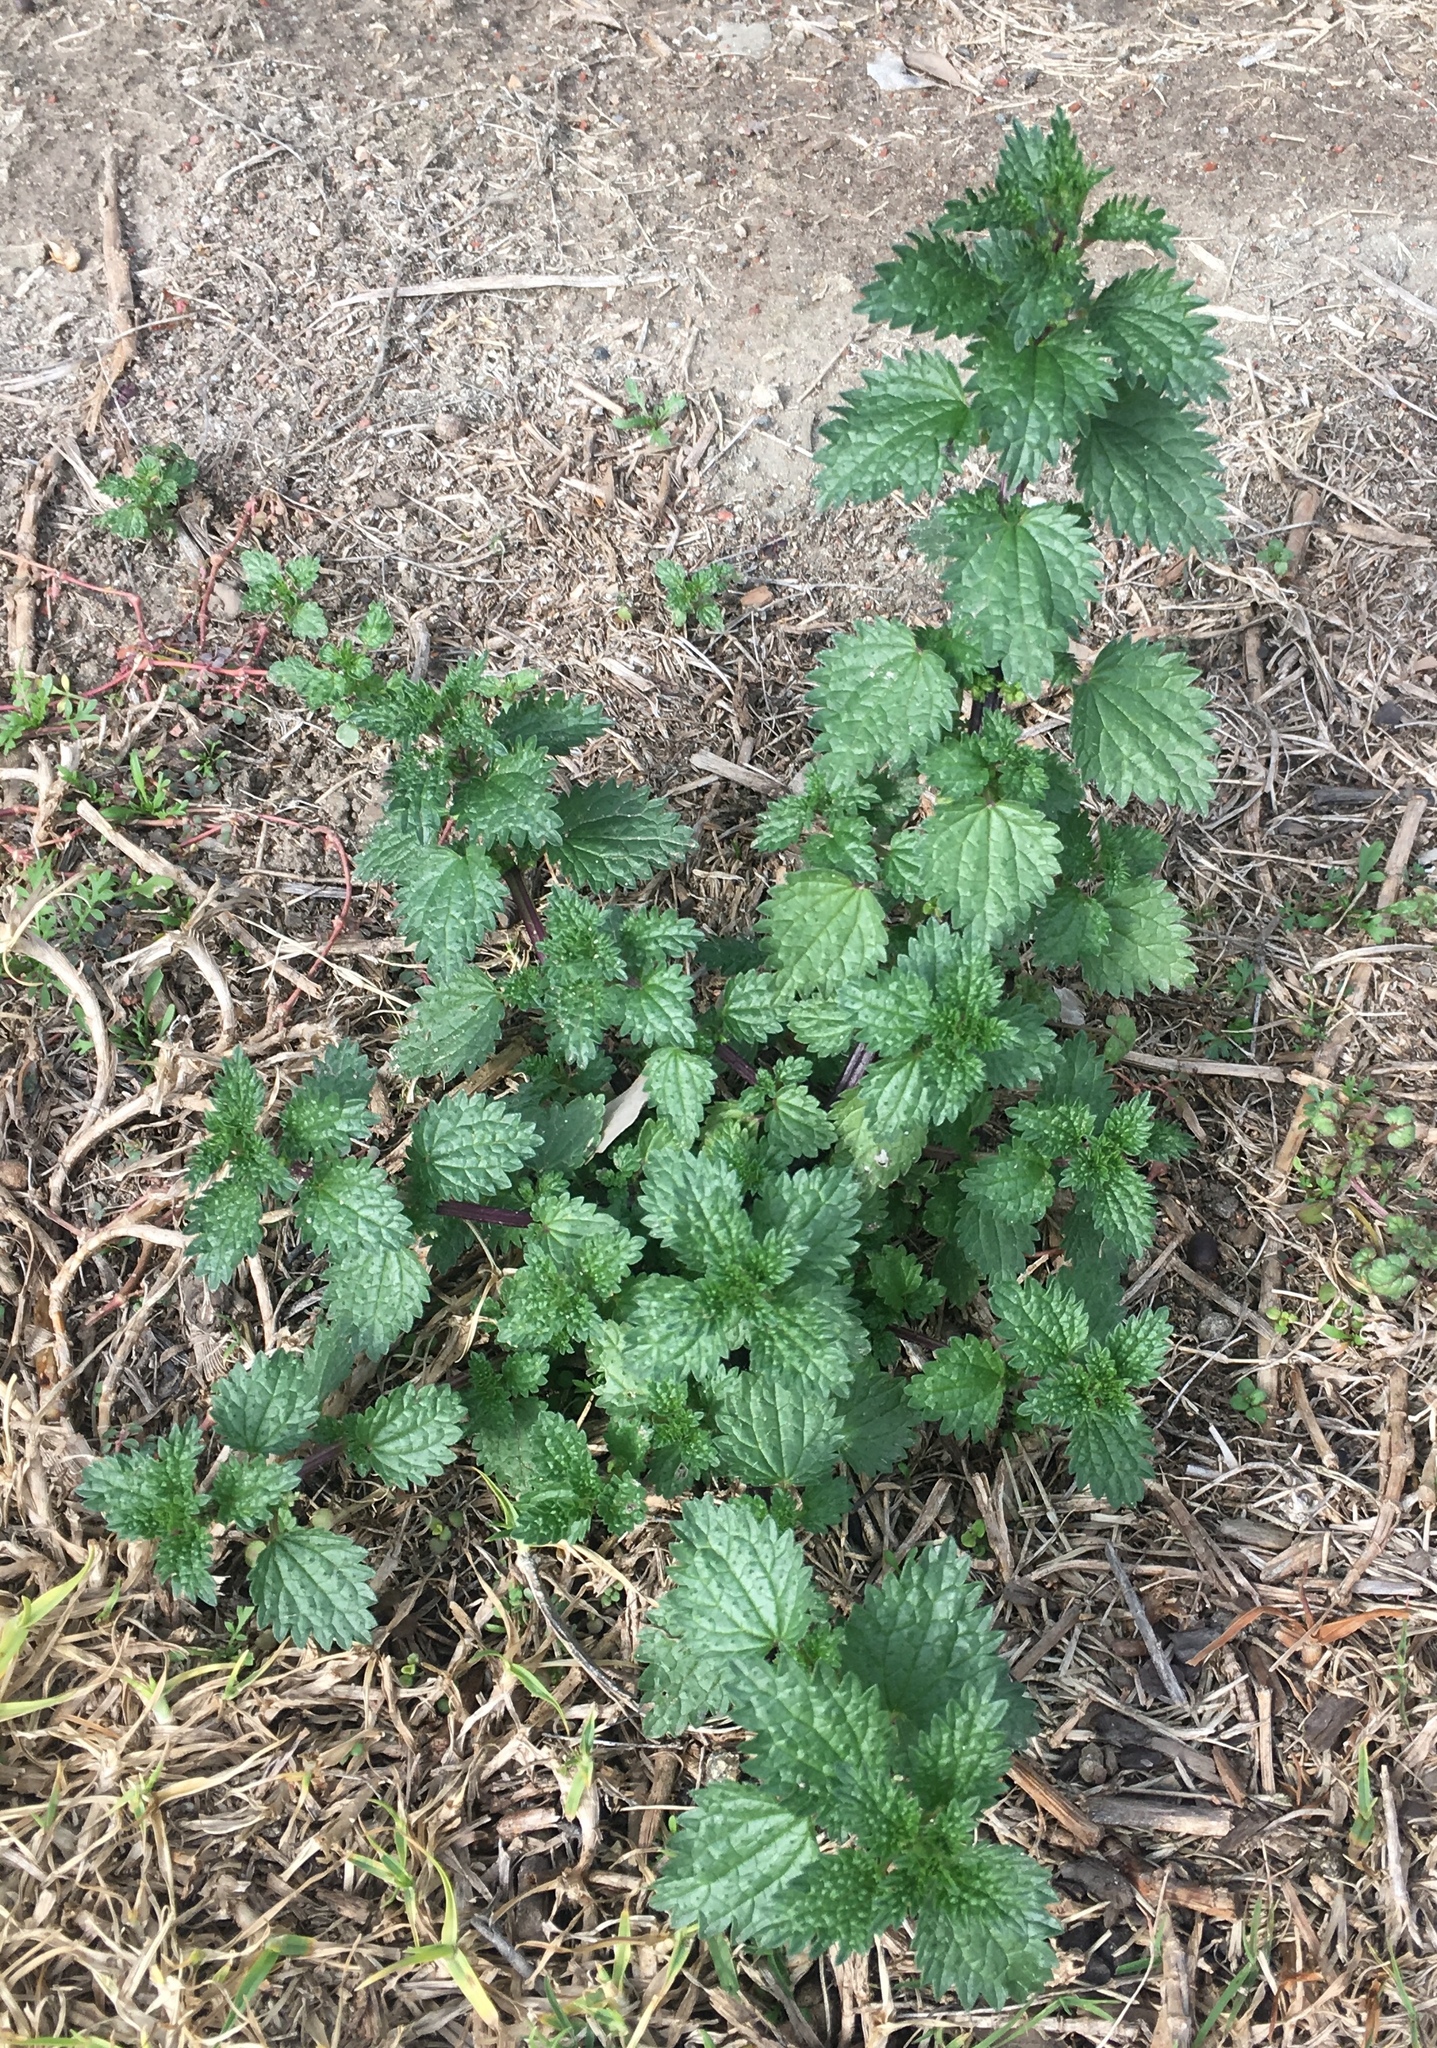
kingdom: Plantae
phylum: Tracheophyta
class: Magnoliopsida
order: Rosales
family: Urticaceae
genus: Urtica
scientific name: Urtica urens
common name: Dwarf nettle
